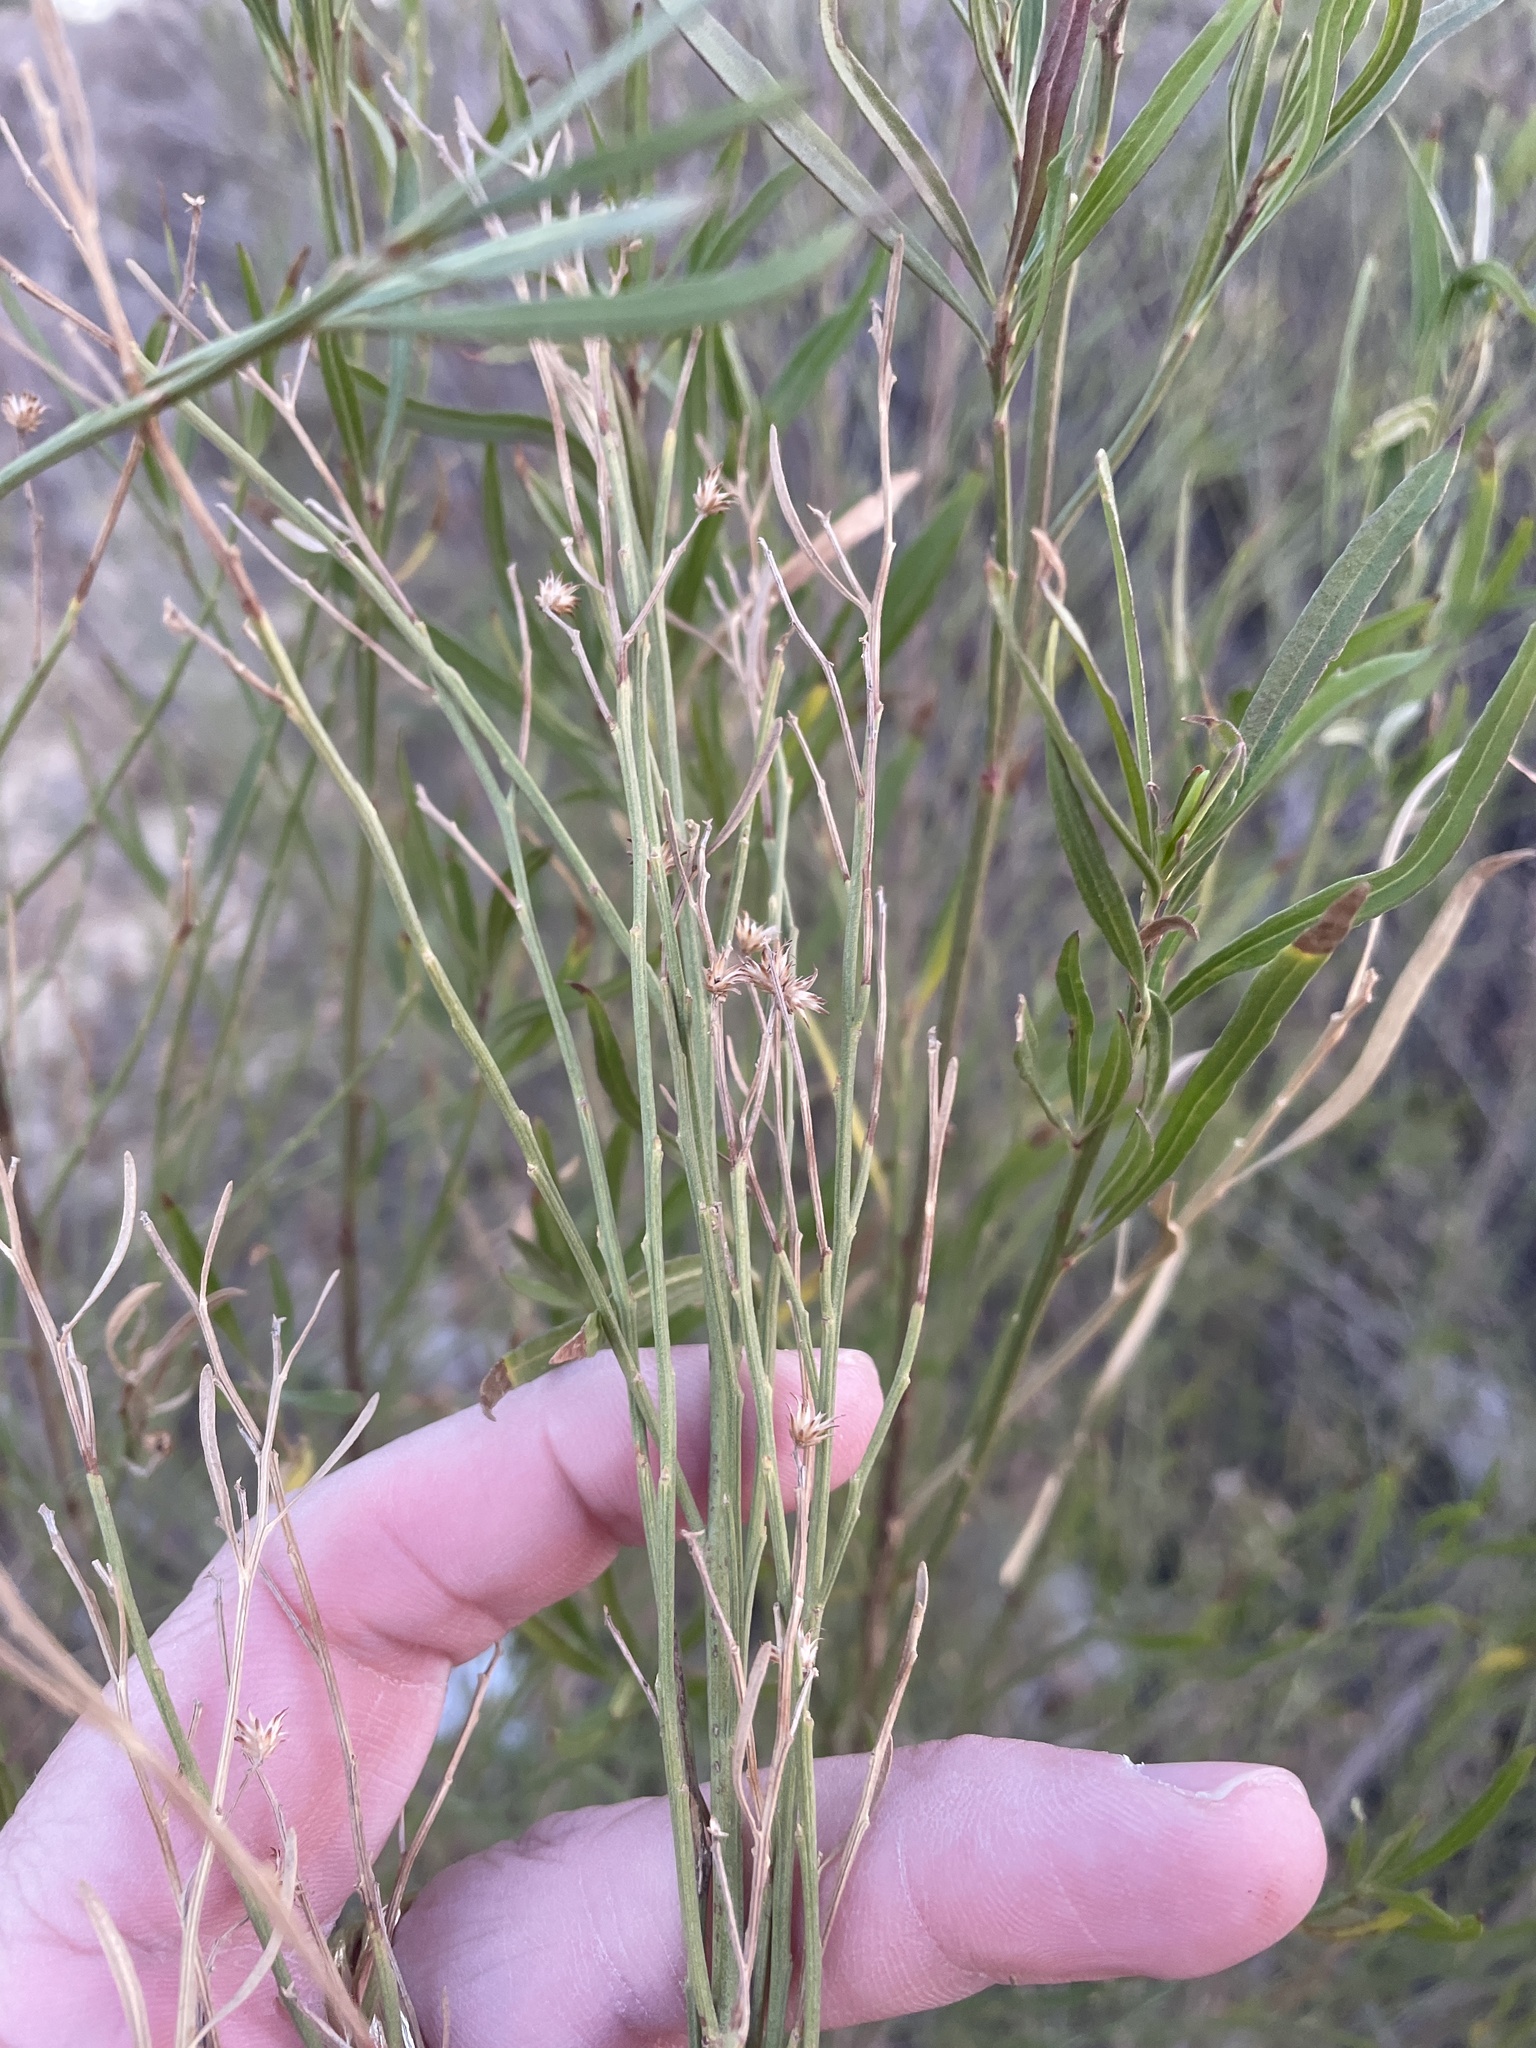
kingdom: Plantae
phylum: Tracheophyta
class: Magnoliopsida
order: Asterales
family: Asteraceae
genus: Baccharis
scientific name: Baccharis neglecta
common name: Roosevelt-weed
